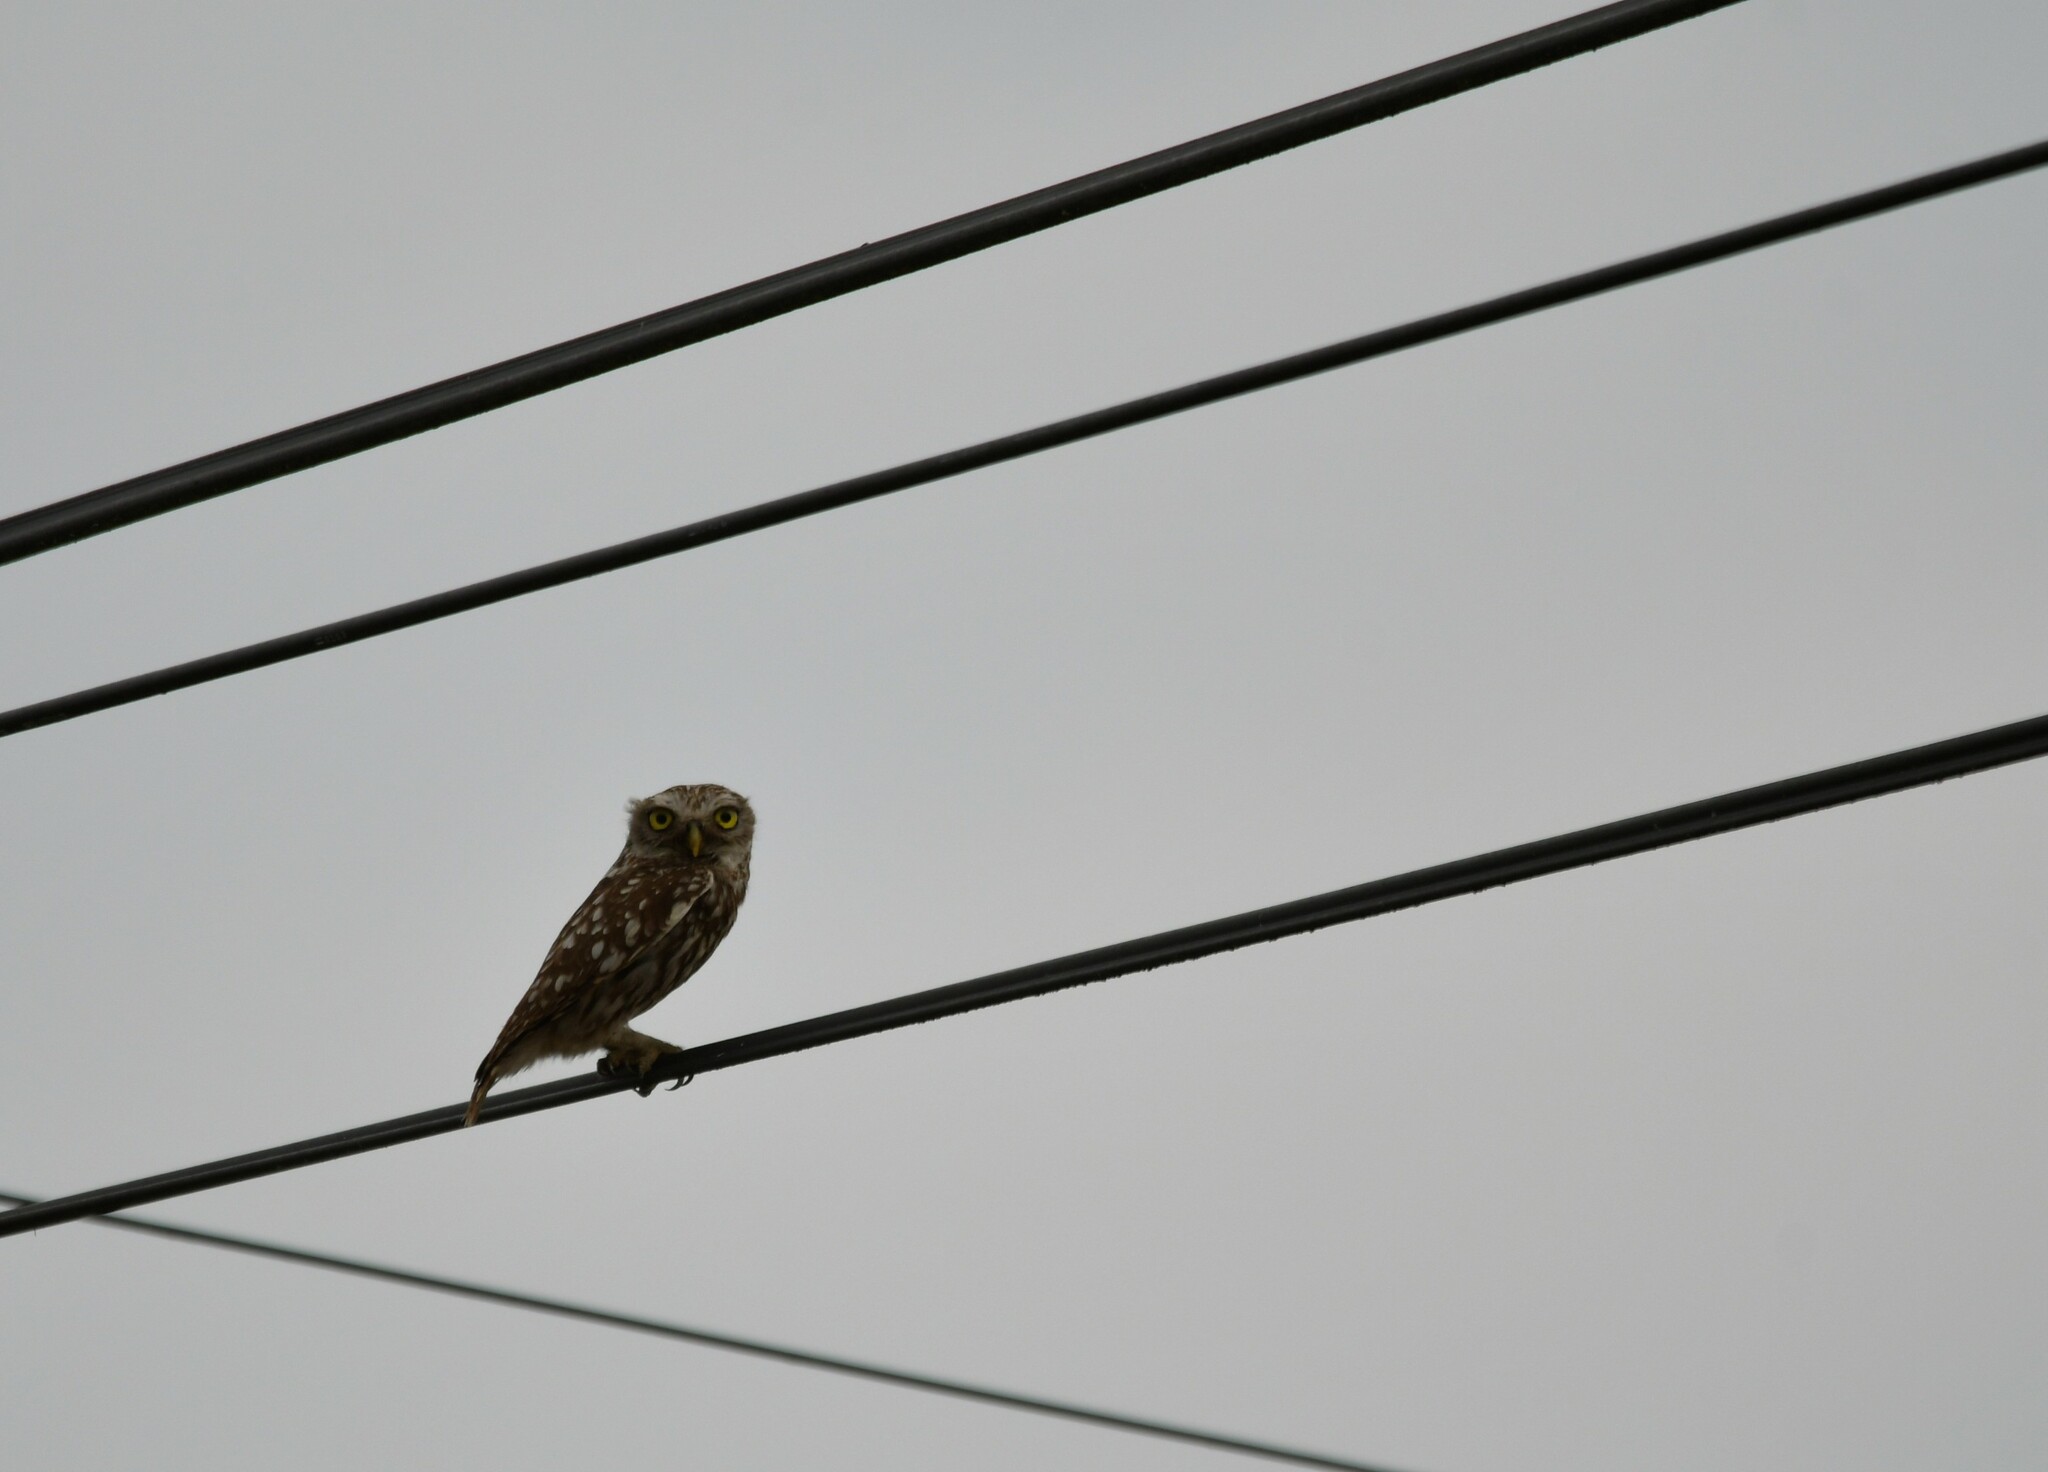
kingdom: Animalia
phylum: Chordata
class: Aves
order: Strigiformes
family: Strigidae
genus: Athene
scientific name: Athene noctua
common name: Little owl
